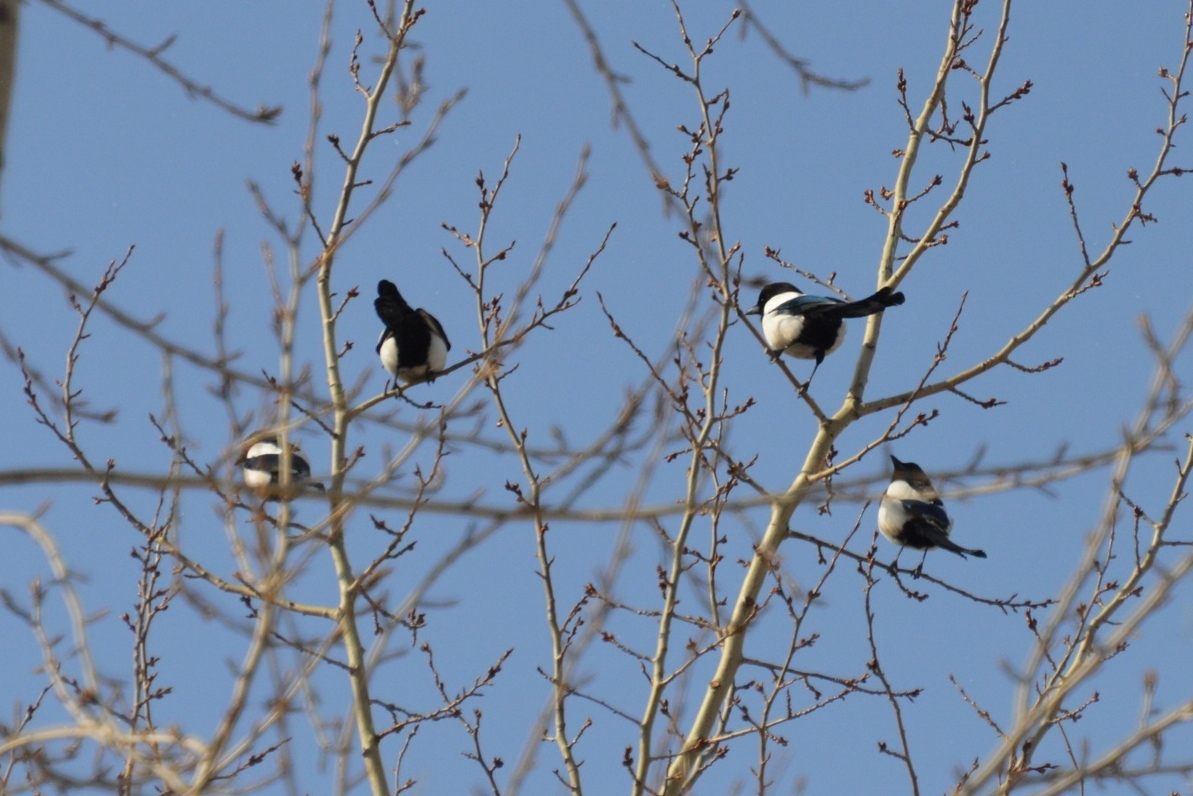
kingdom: Animalia
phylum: Chordata
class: Aves
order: Passeriformes
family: Corvidae
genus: Pica
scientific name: Pica pica
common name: Eurasian magpie
